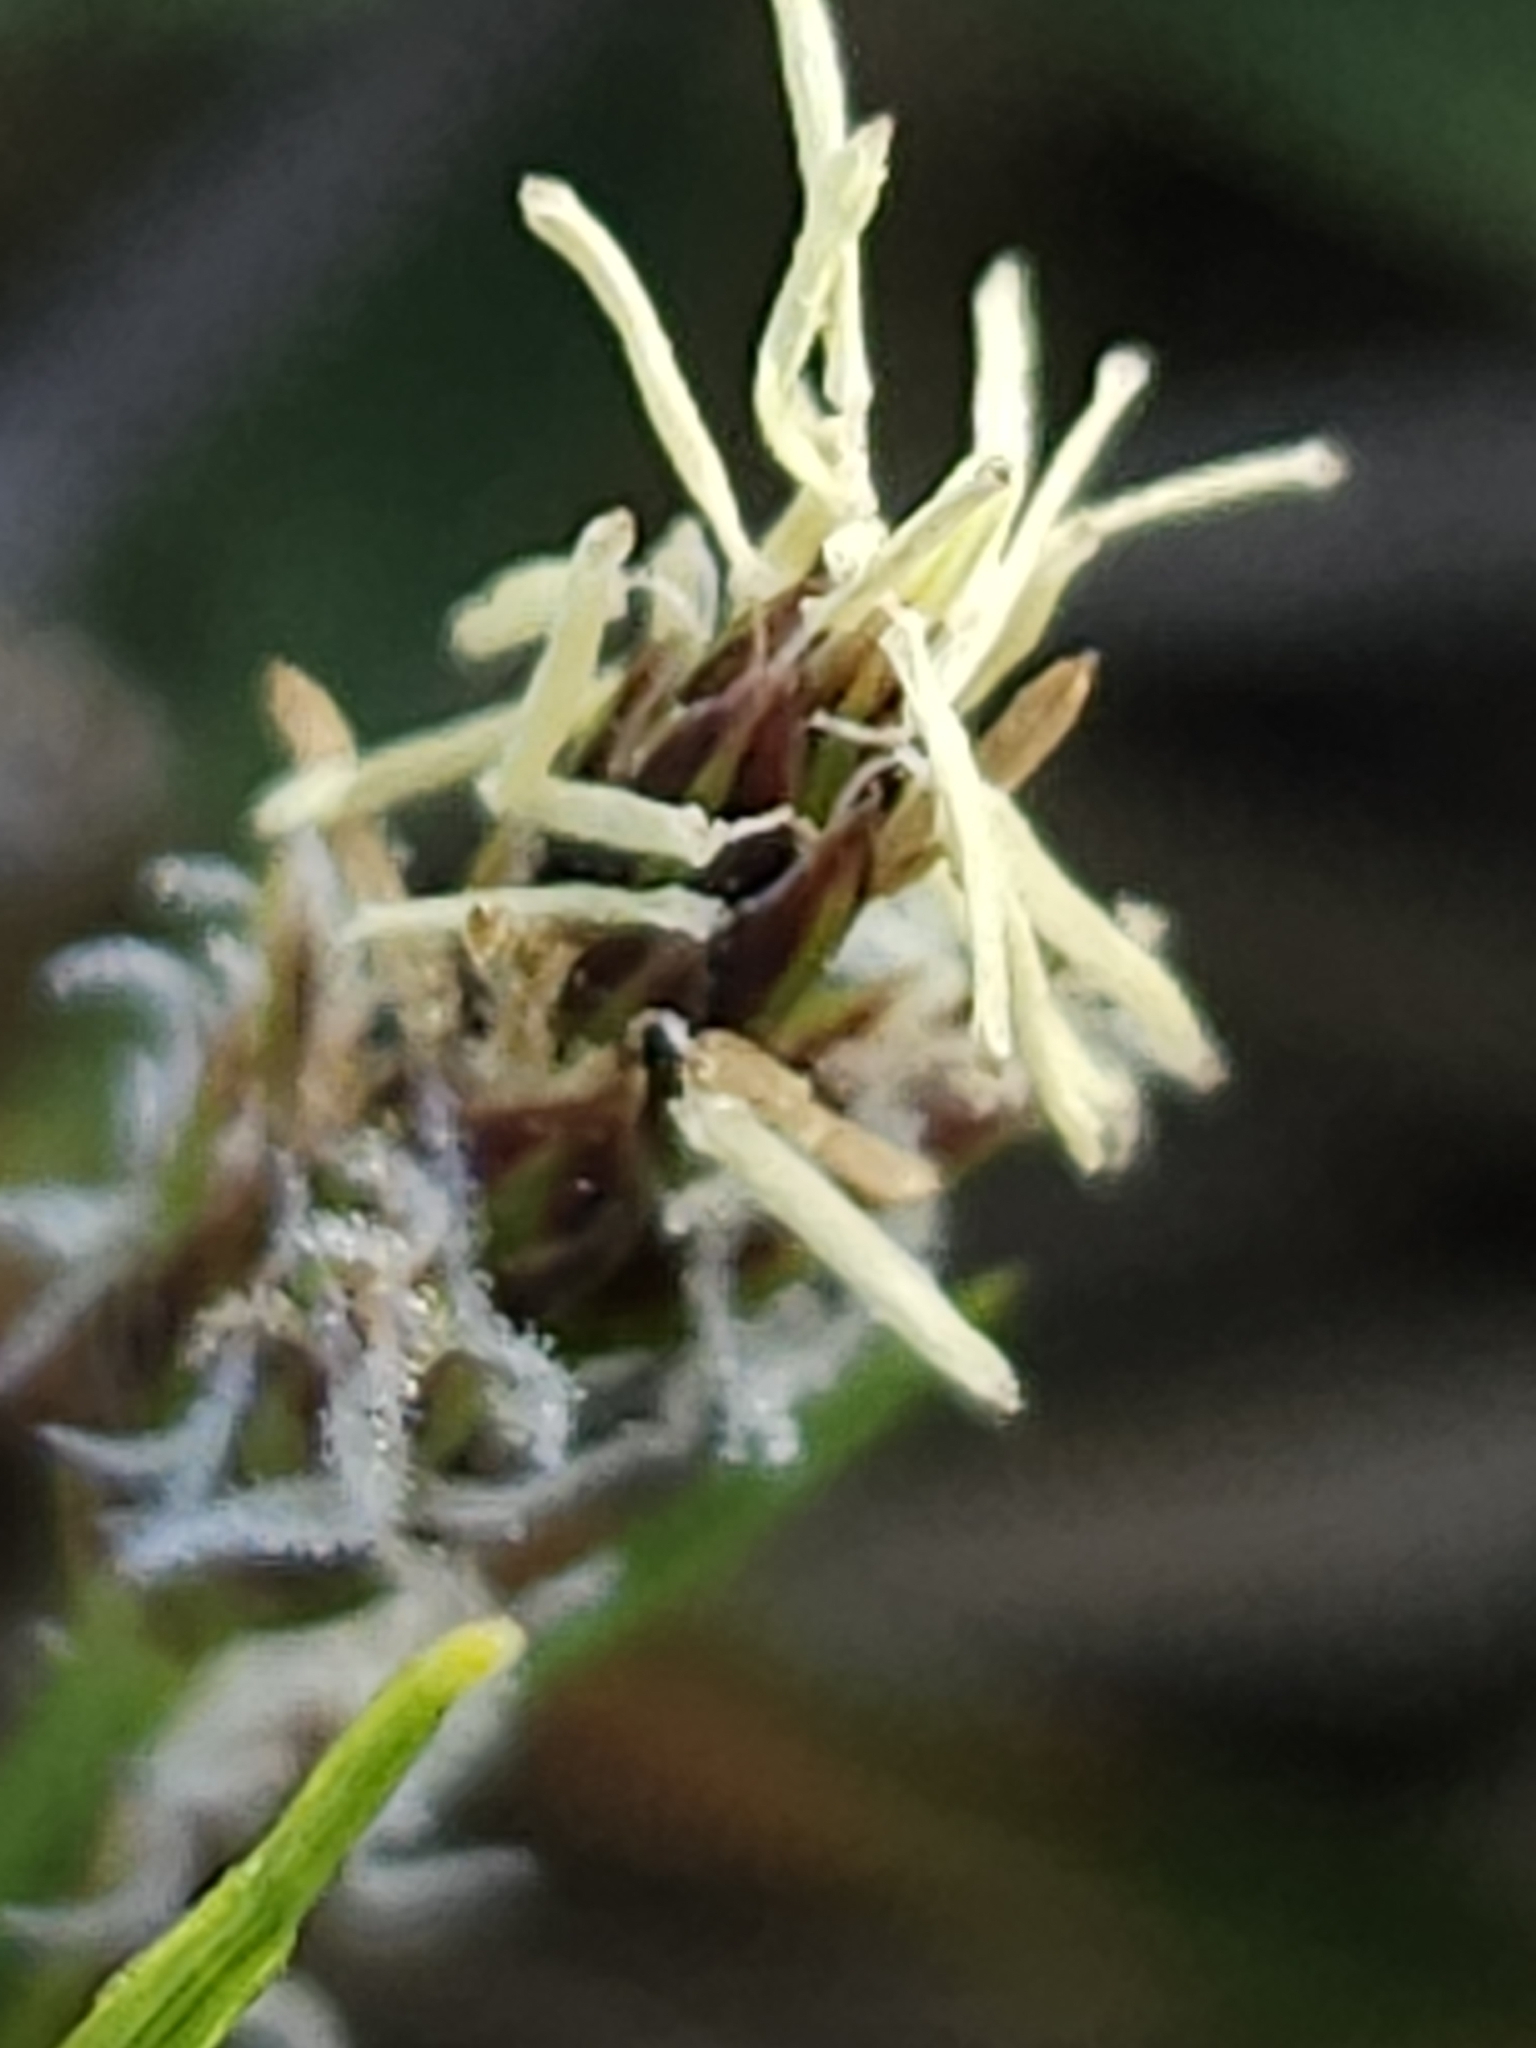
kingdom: Plantae
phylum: Tracheophyta
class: Liliopsida
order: Poales
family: Cyperaceae
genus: Carex
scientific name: Carex oxyandra
